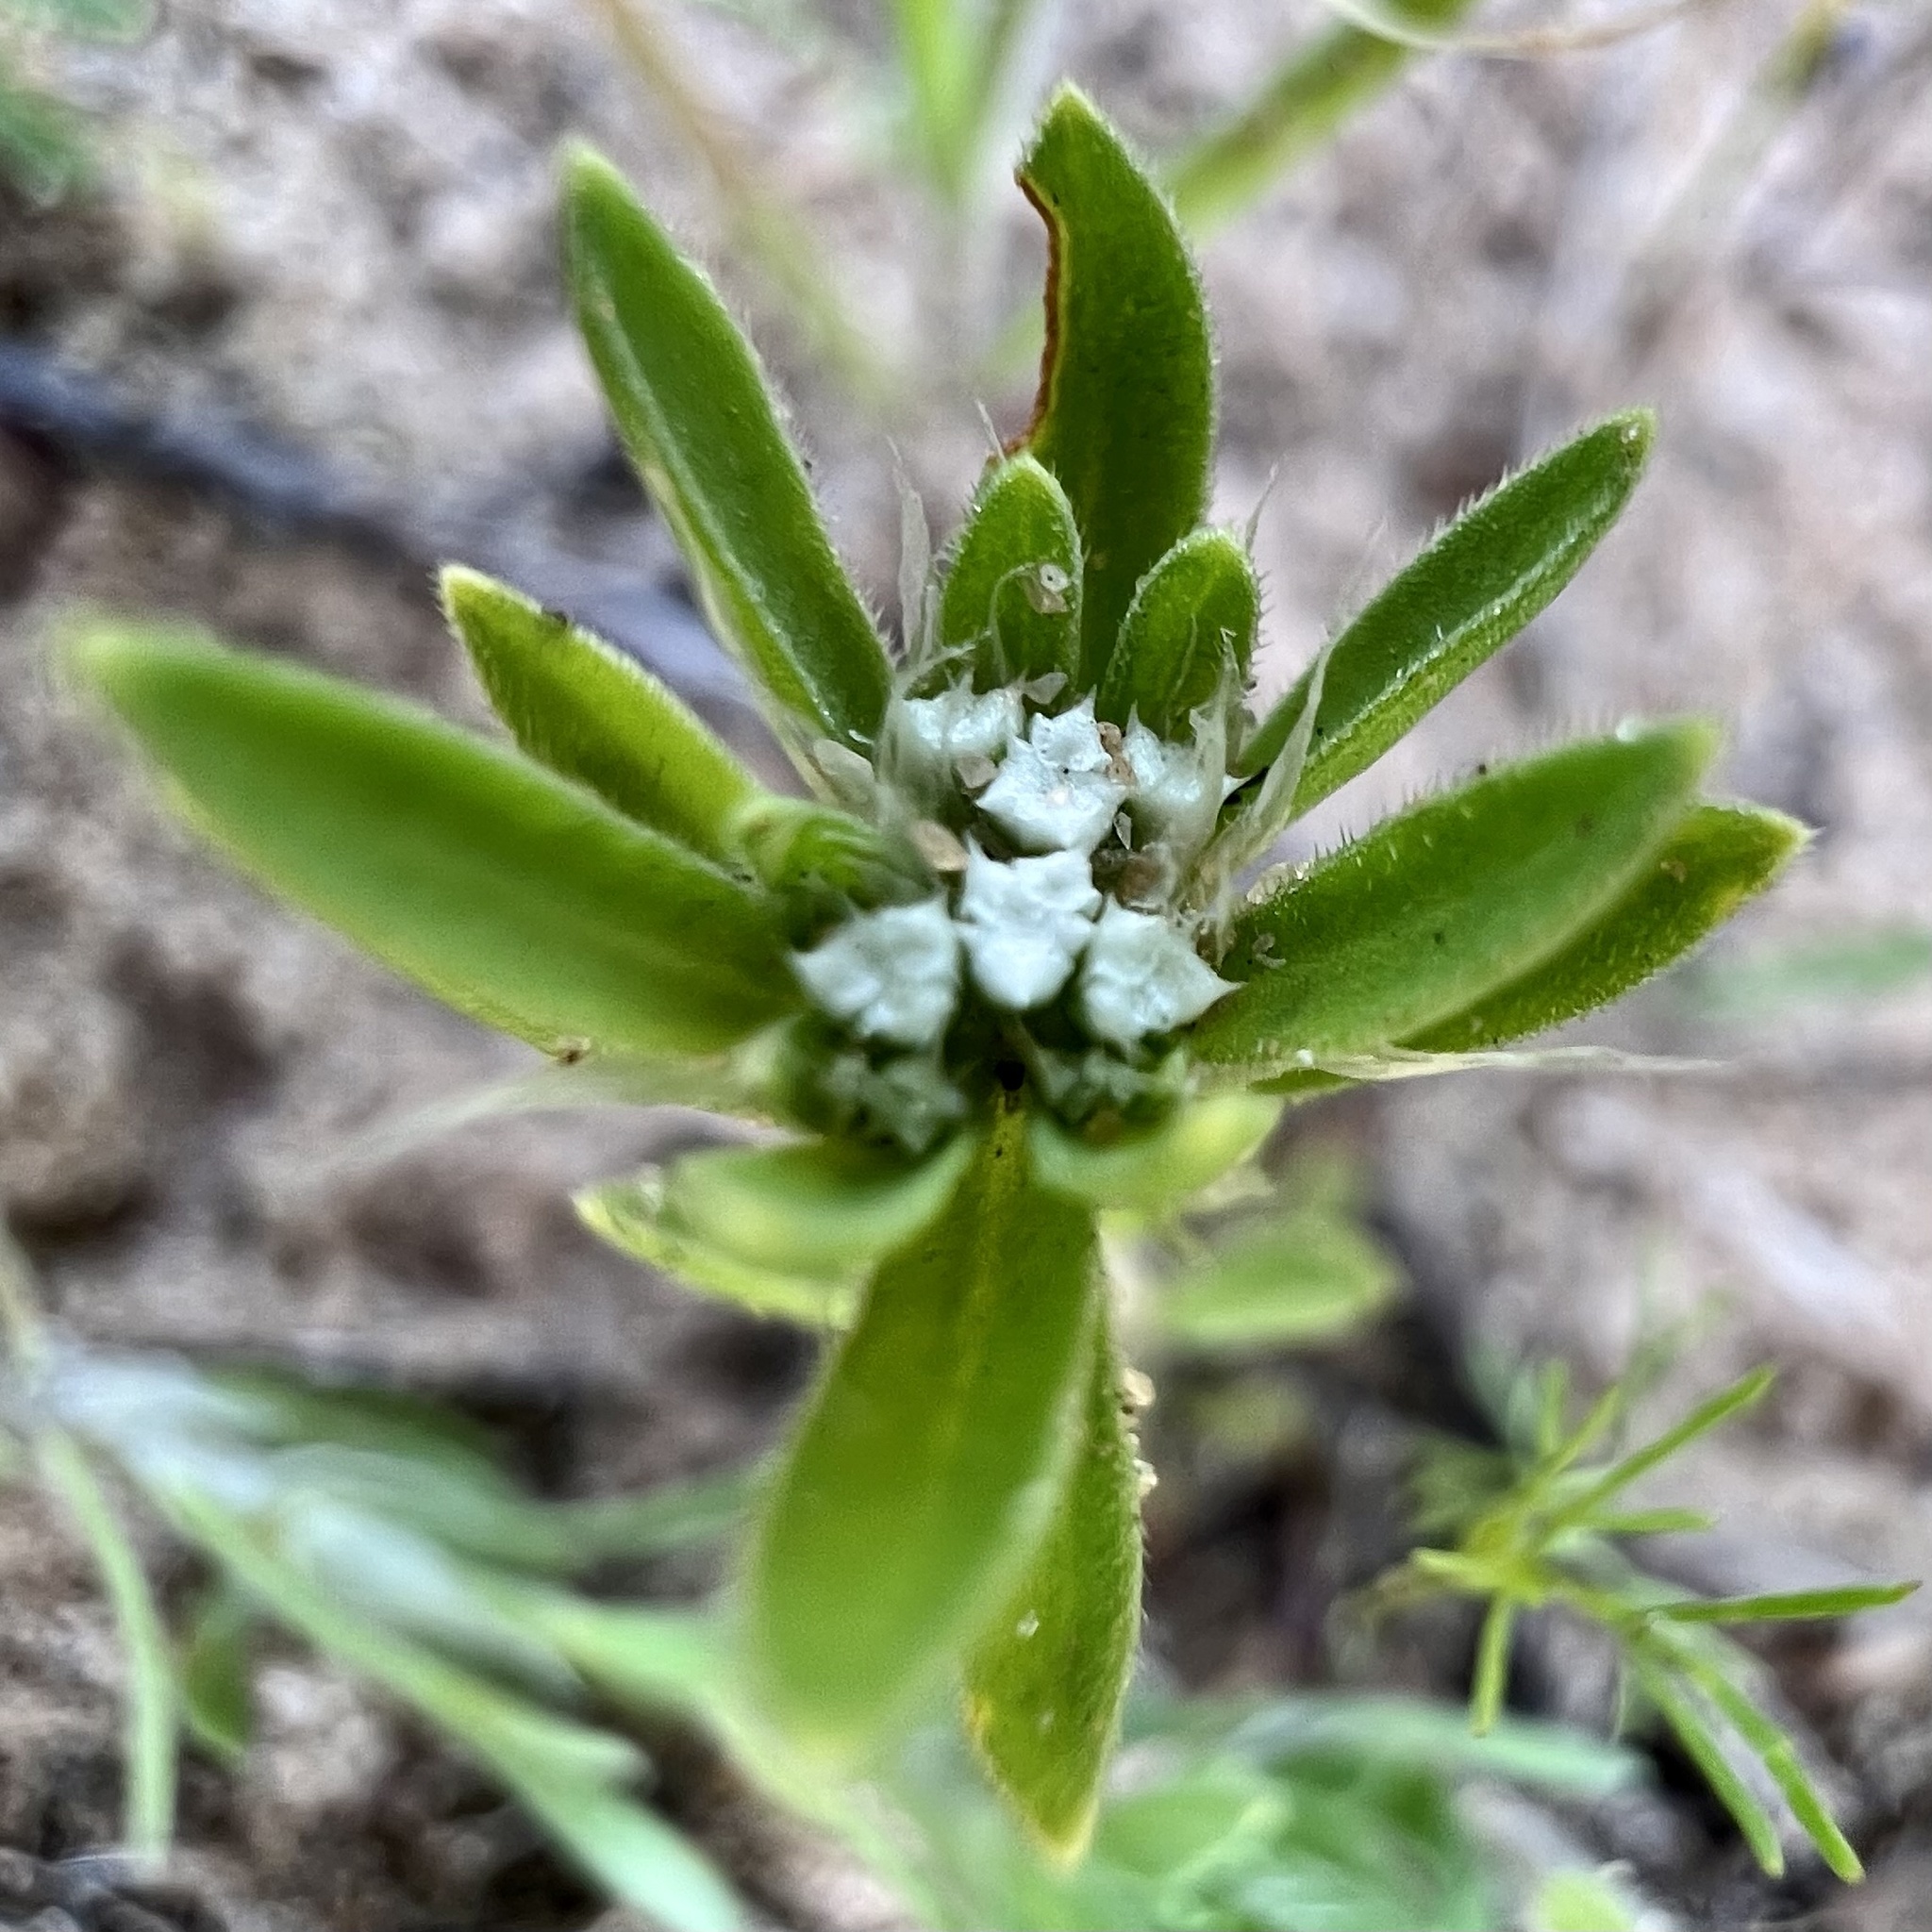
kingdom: Plantae
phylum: Tracheophyta
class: Magnoliopsida
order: Caryophyllales
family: Caryophyllaceae
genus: Paronychia
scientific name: Paronychia drummondii
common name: Drummond's nailwort
